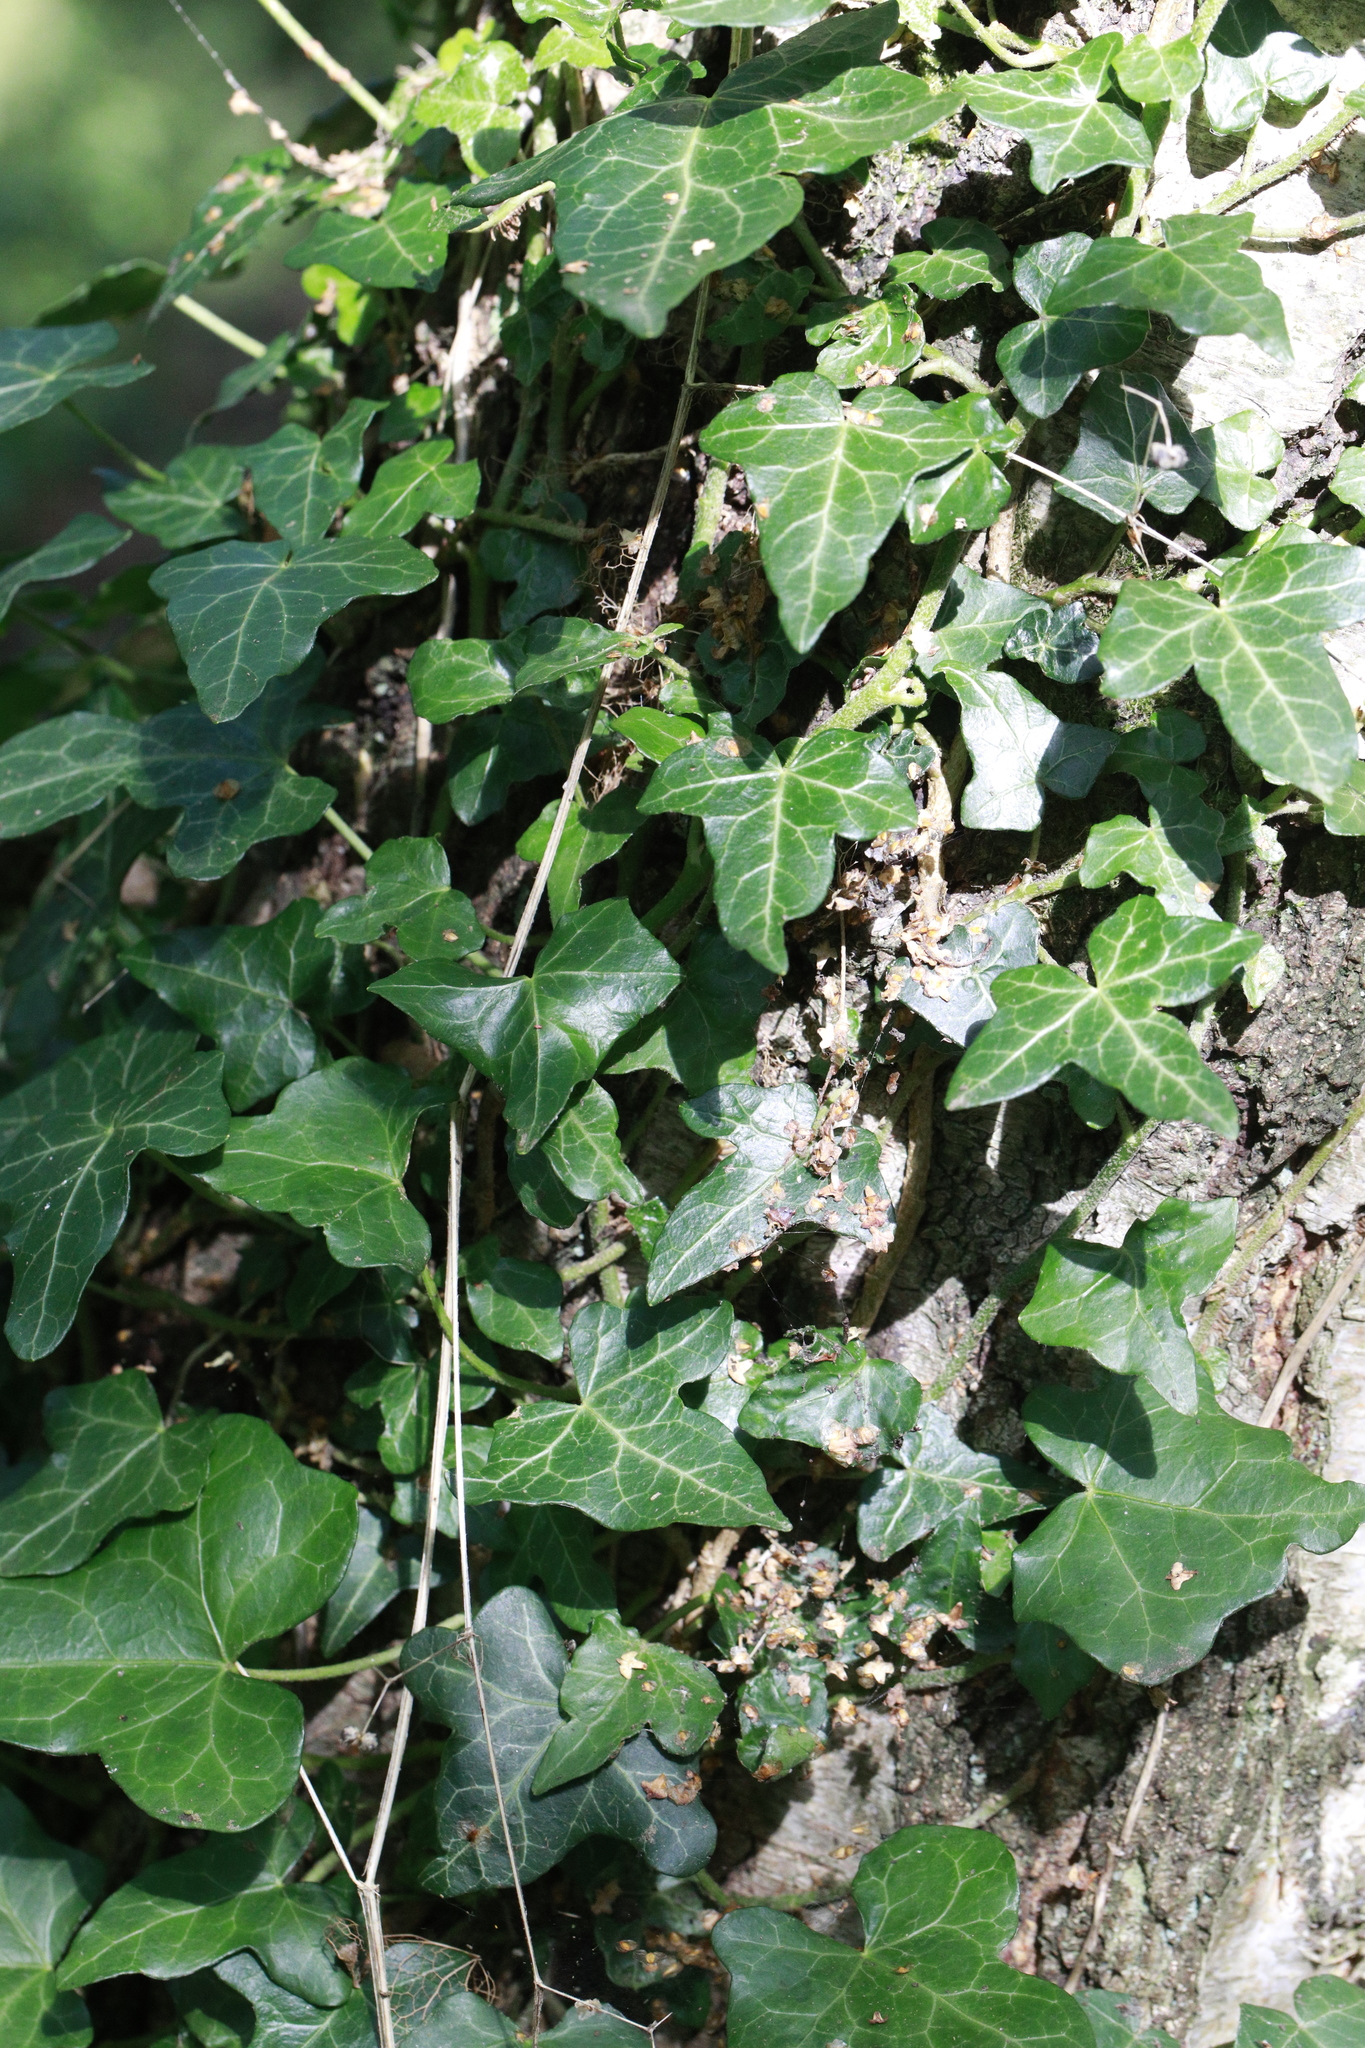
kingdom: Plantae
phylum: Tracheophyta
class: Magnoliopsida
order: Apiales
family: Araliaceae
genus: Hedera
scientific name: Hedera helix
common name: Ivy
